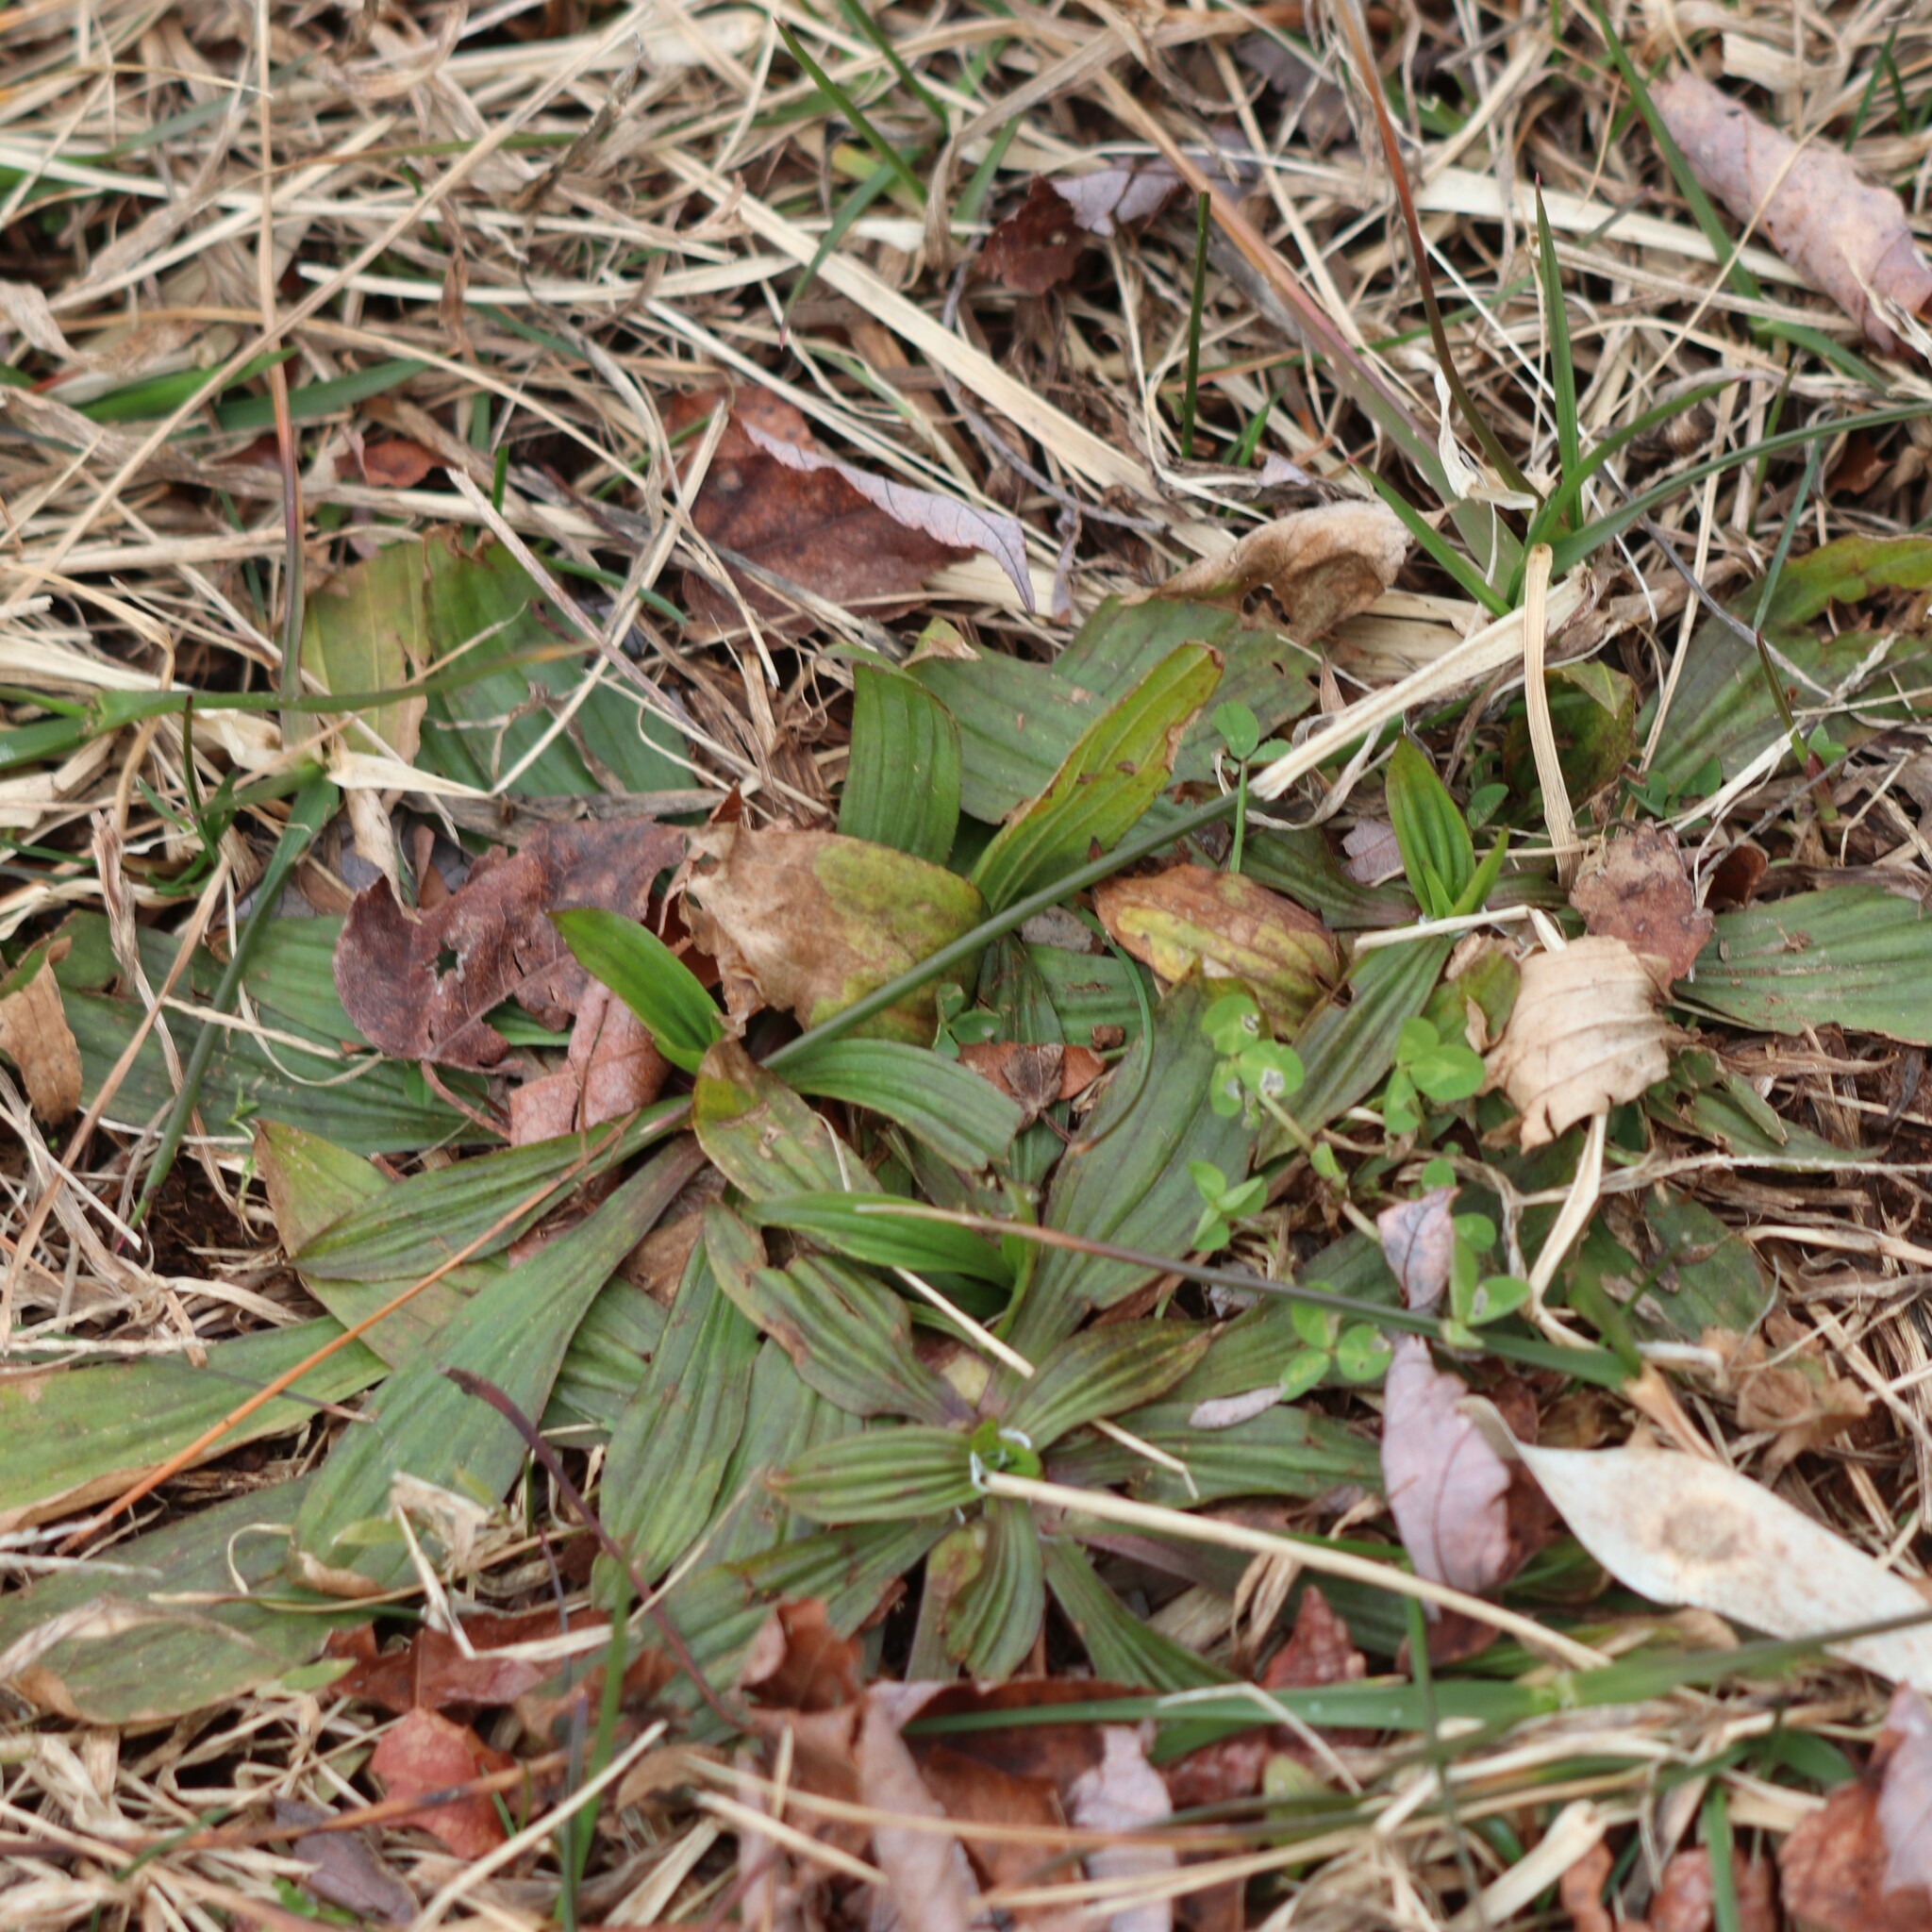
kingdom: Plantae
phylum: Tracheophyta
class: Magnoliopsida
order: Lamiales
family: Plantaginaceae
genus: Plantago
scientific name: Plantago lanceolata
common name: Ribwort plantain
